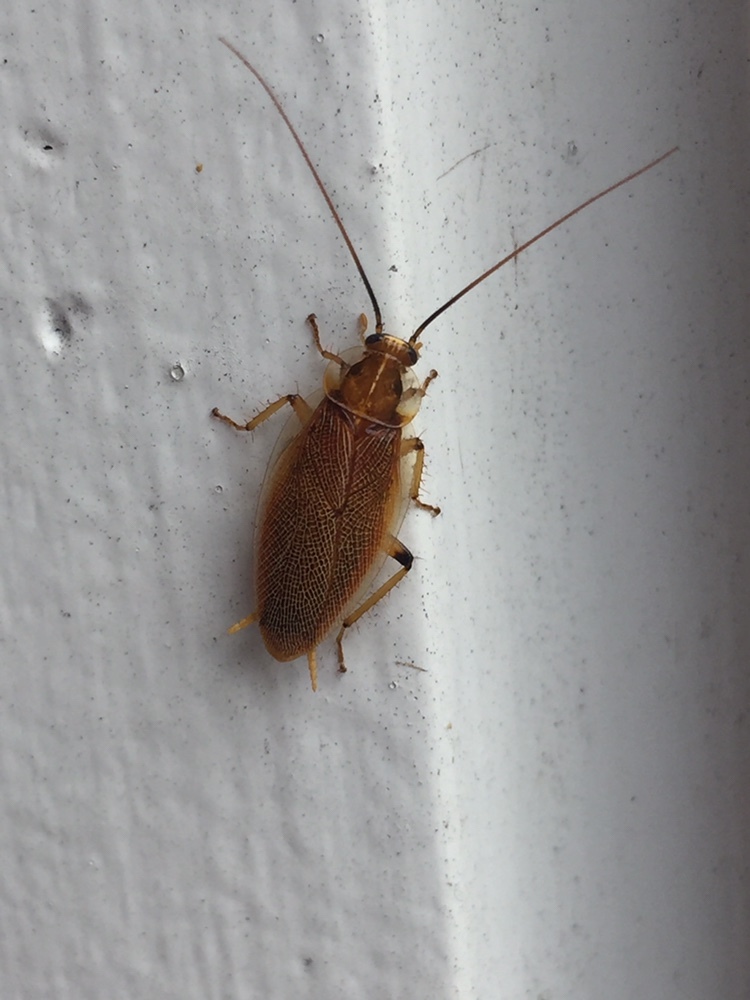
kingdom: Animalia
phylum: Arthropoda
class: Insecta
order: Blattodea
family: Ectobiidae
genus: Balta
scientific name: Balta bicolor
